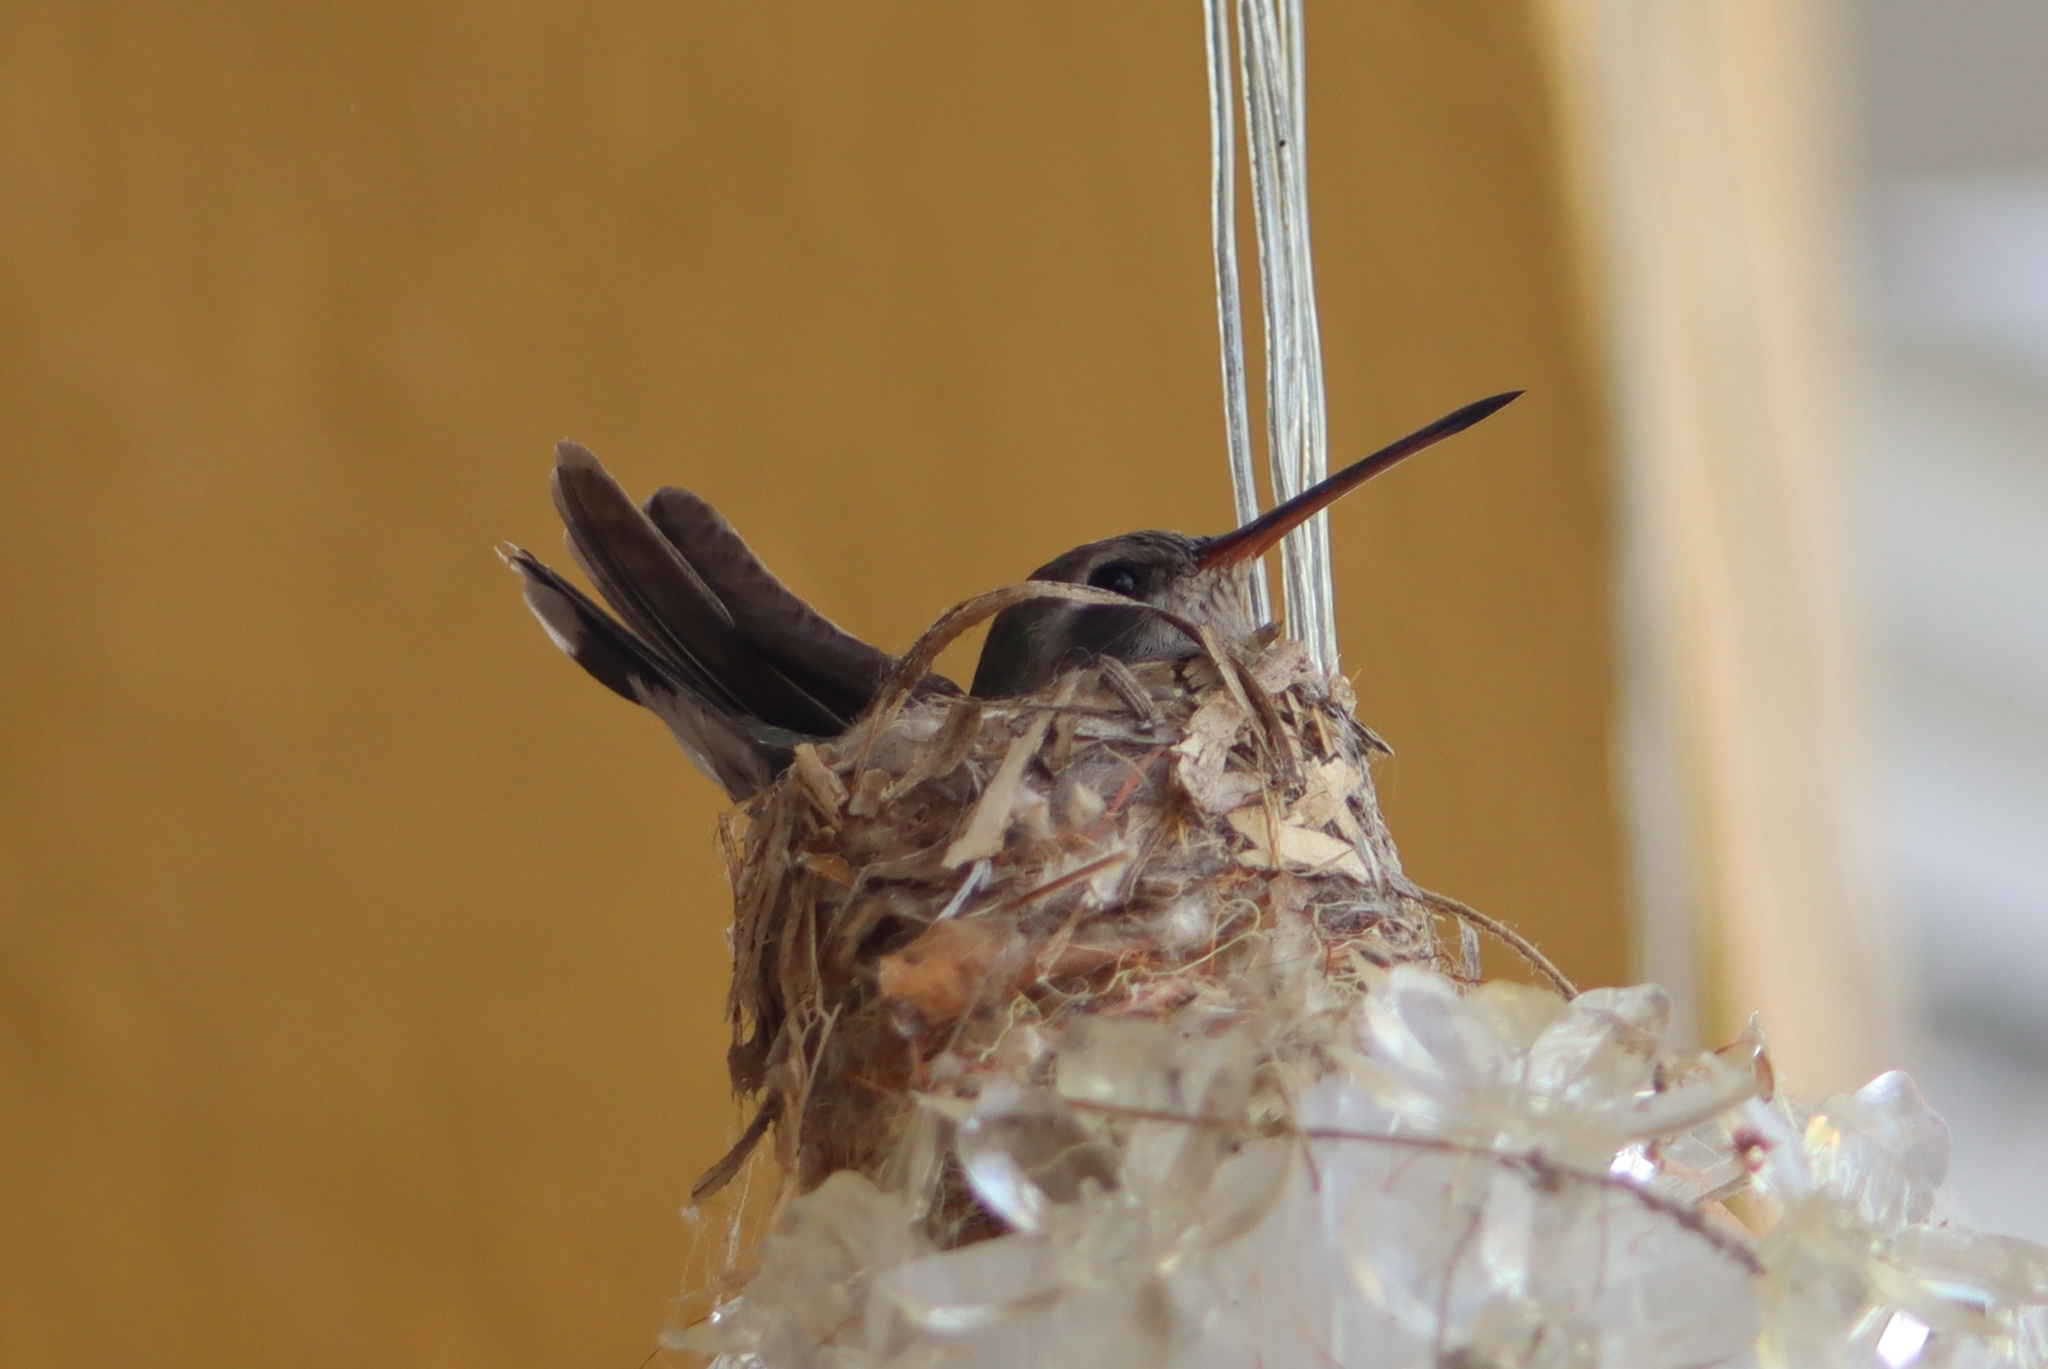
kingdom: Animalia
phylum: Chordata
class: Aves
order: Apodiformes
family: Trochilidae
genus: Cynanthus
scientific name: Cynanthus latirostris
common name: Broad-billed hummingbird
